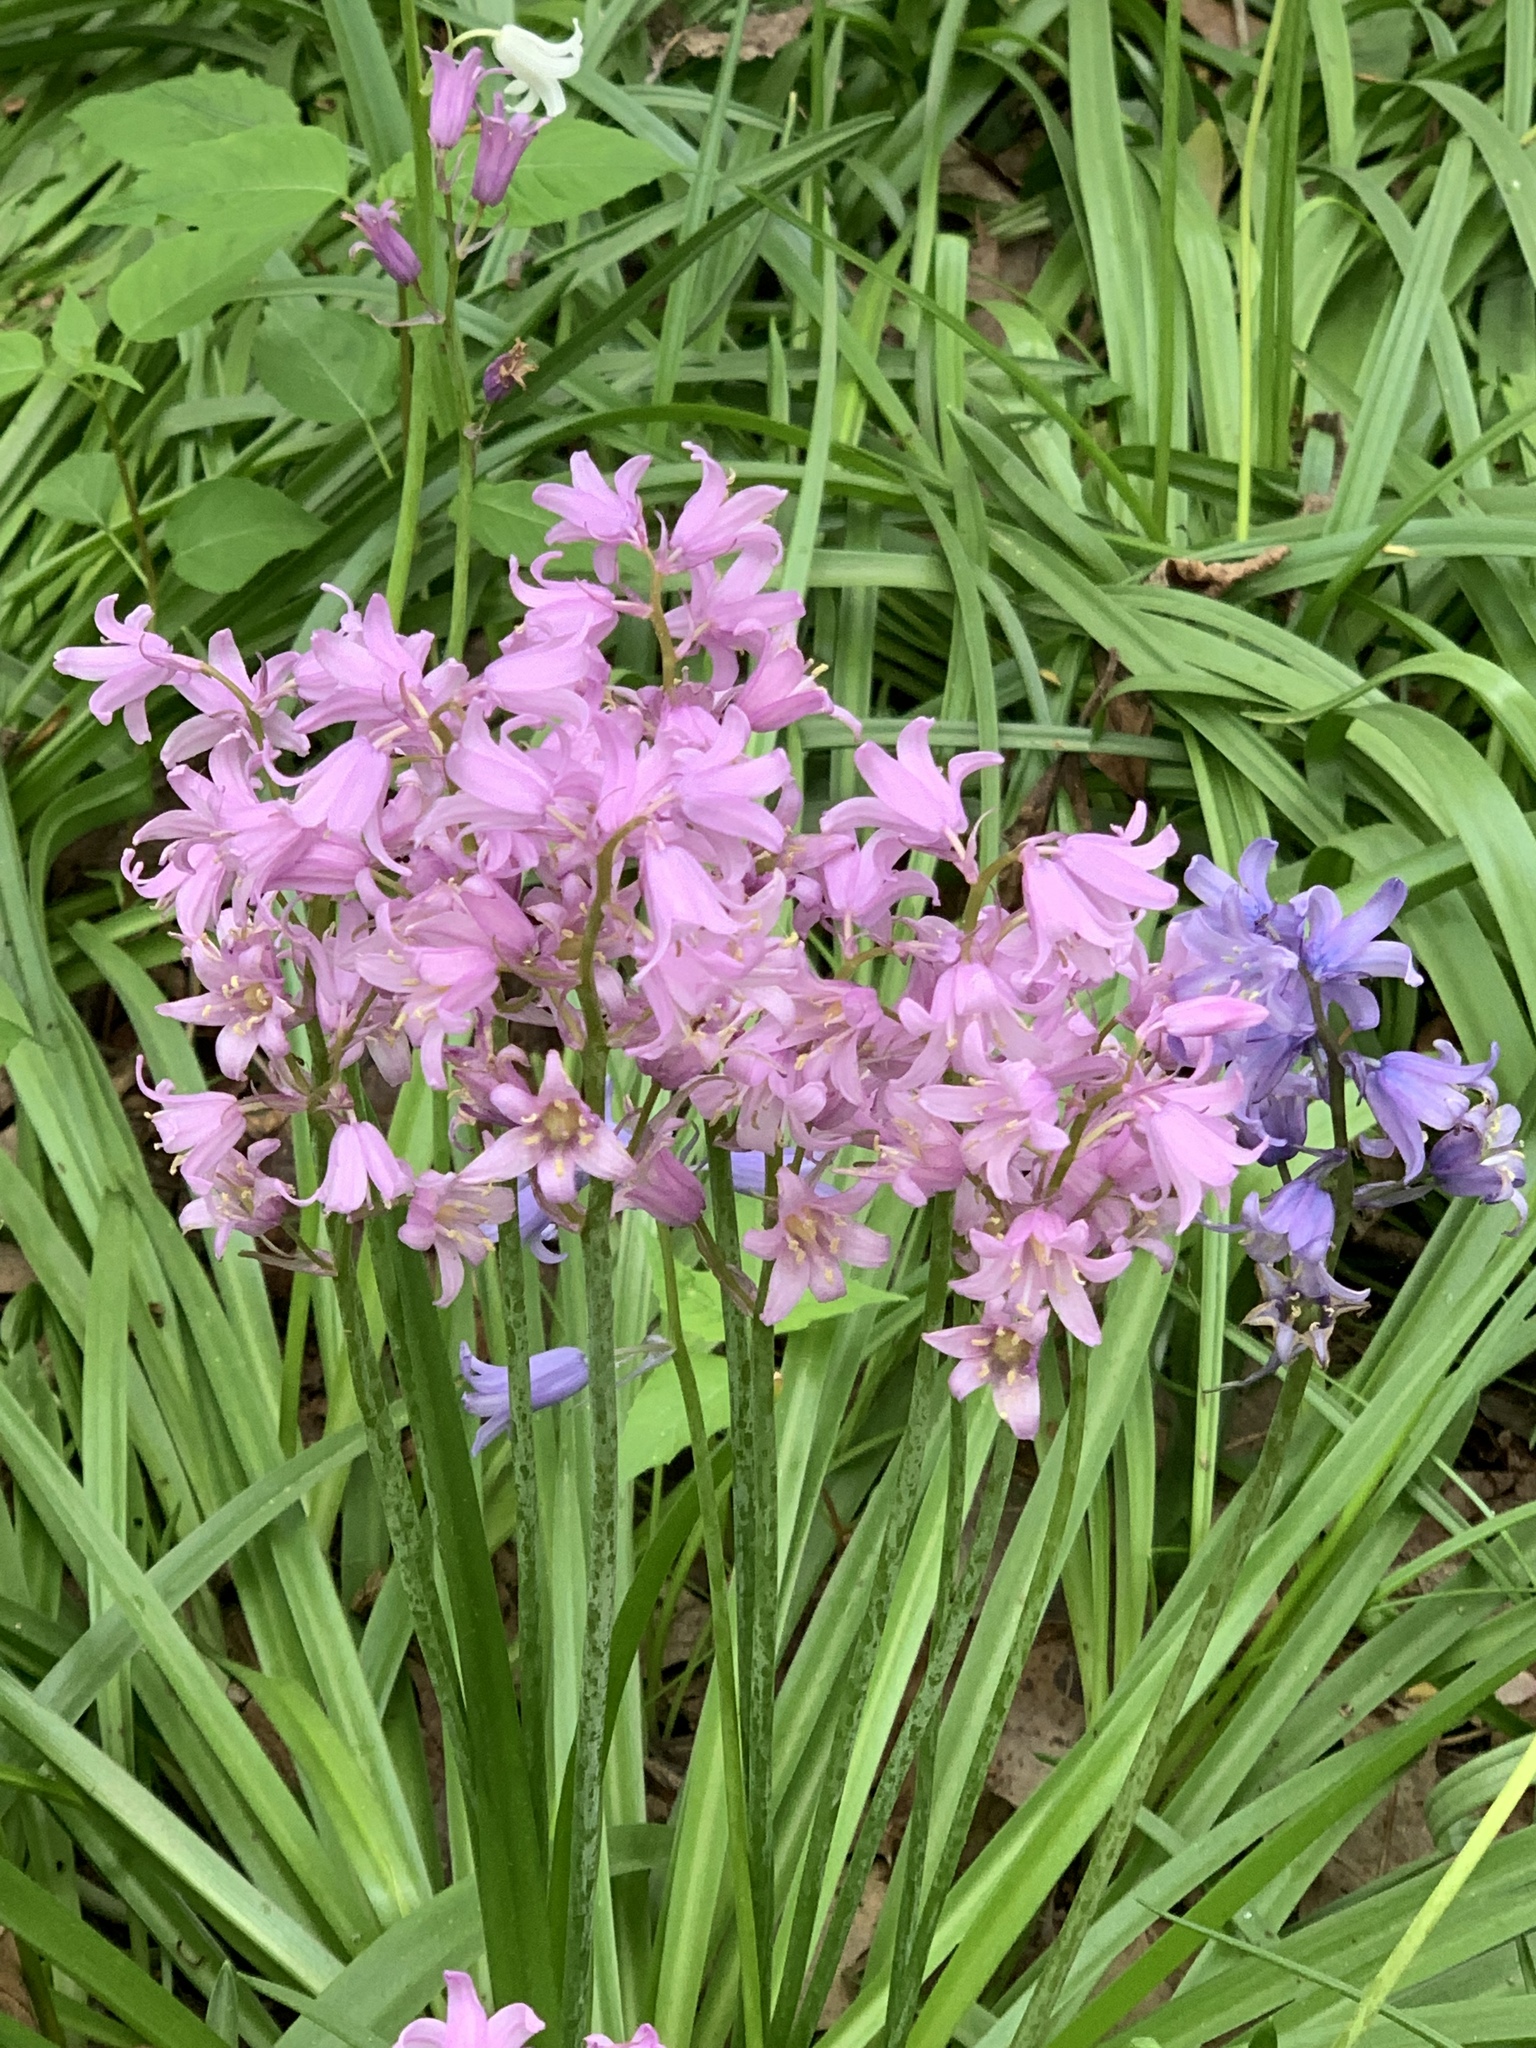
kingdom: Plantae
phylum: Tracheophyta
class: Liliopsida
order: Asparagales
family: Asparagaceae
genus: Hyacinthoides
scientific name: Hyacinthoides hispanica
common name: Spanish bluebell
